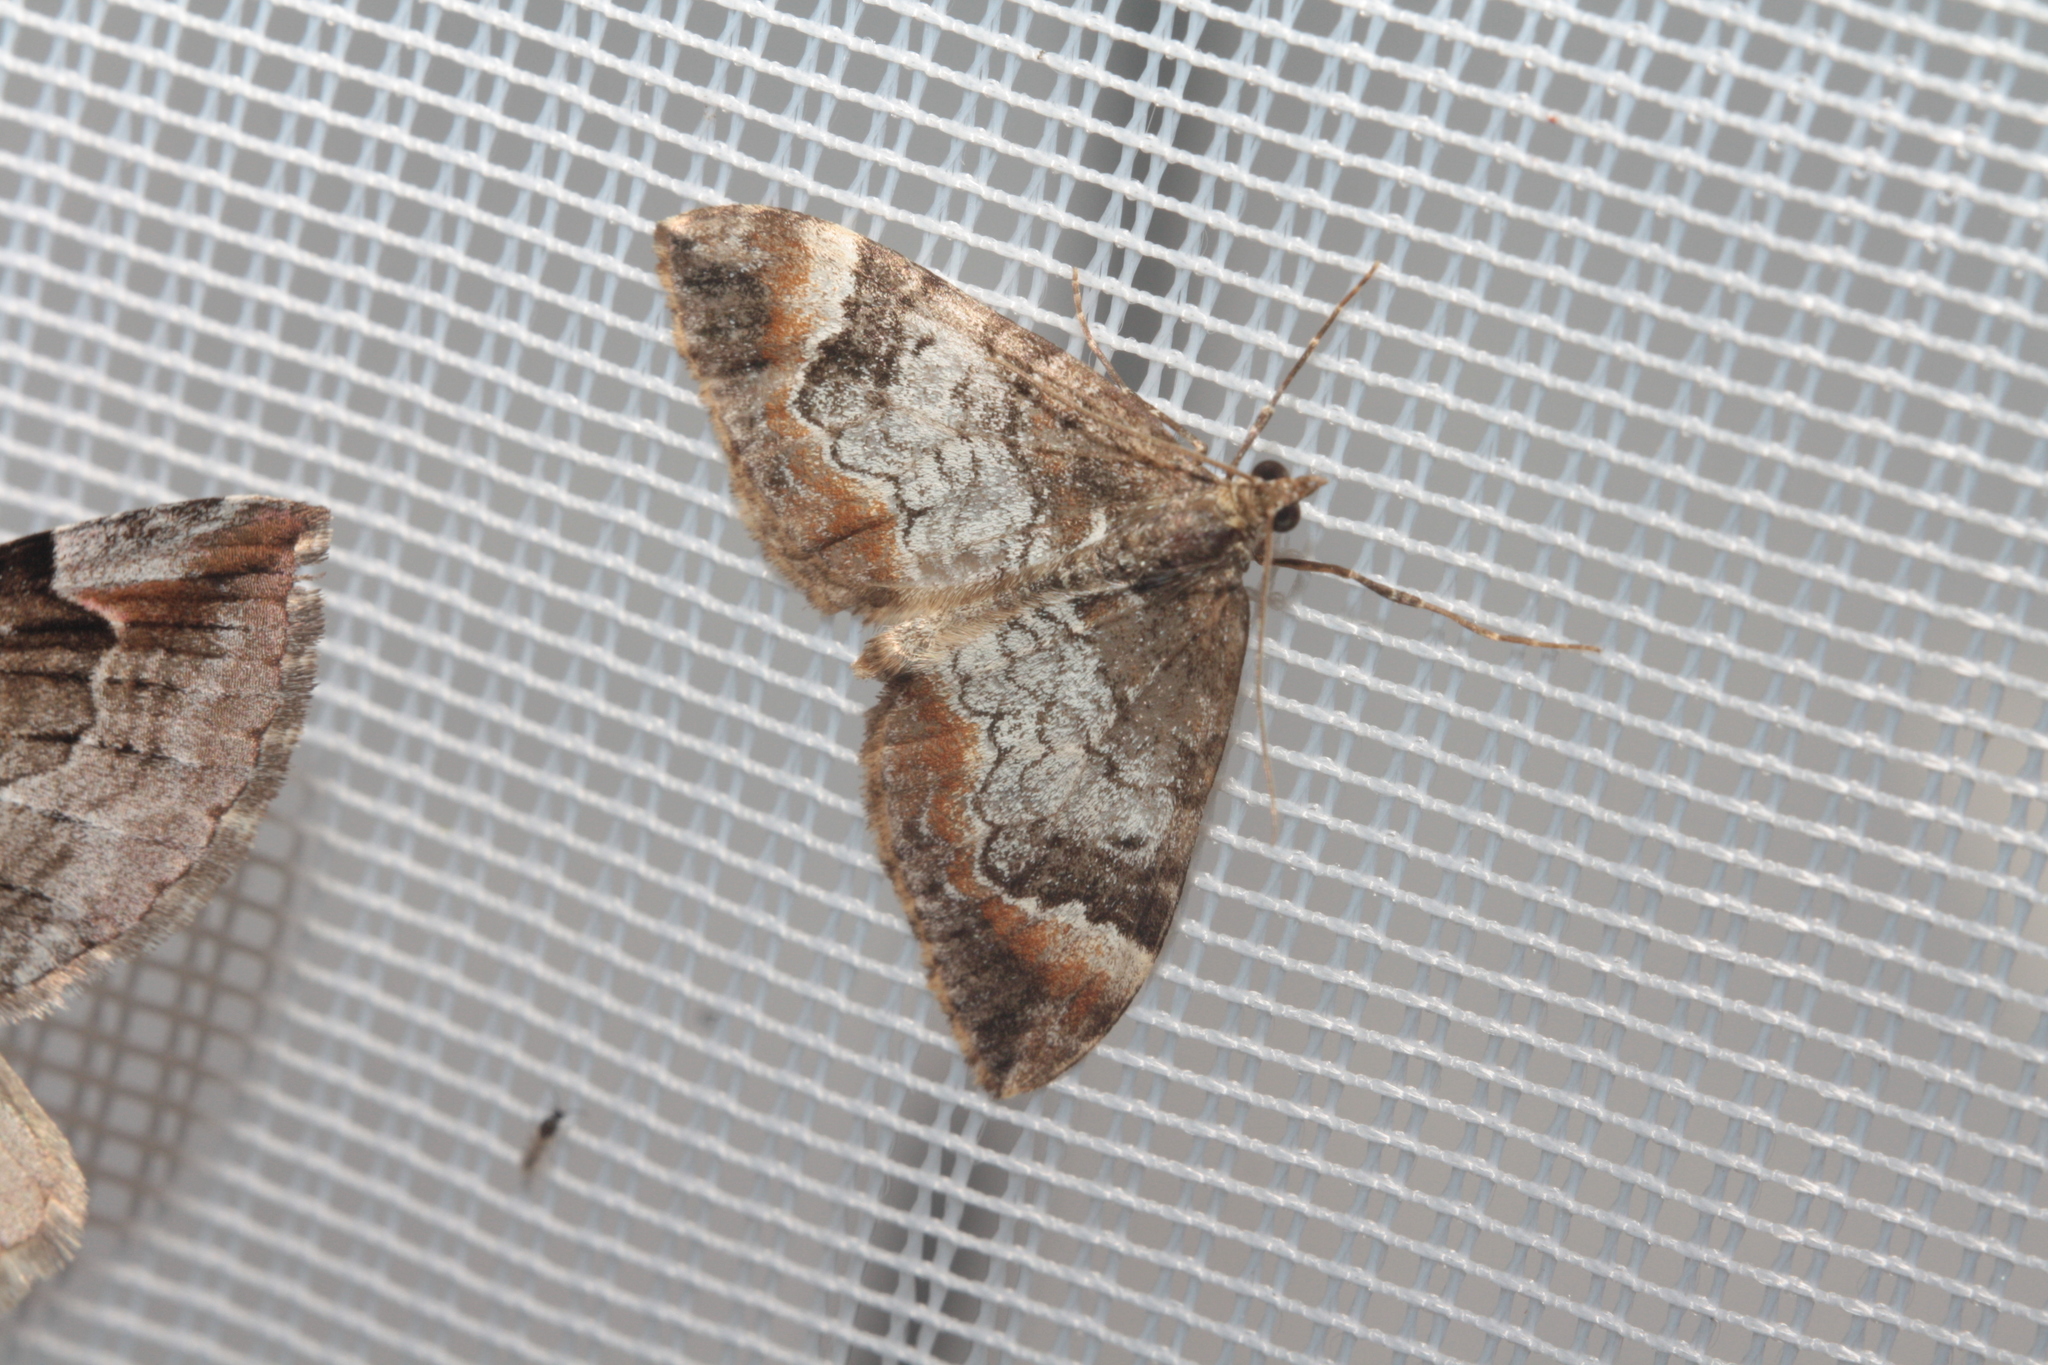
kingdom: Animalia
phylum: Arthropoda
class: Insecta
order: Lepidoptera
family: Geometridae
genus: Dysstroma
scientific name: Dysstroma truncata
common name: Common marbled carpet
